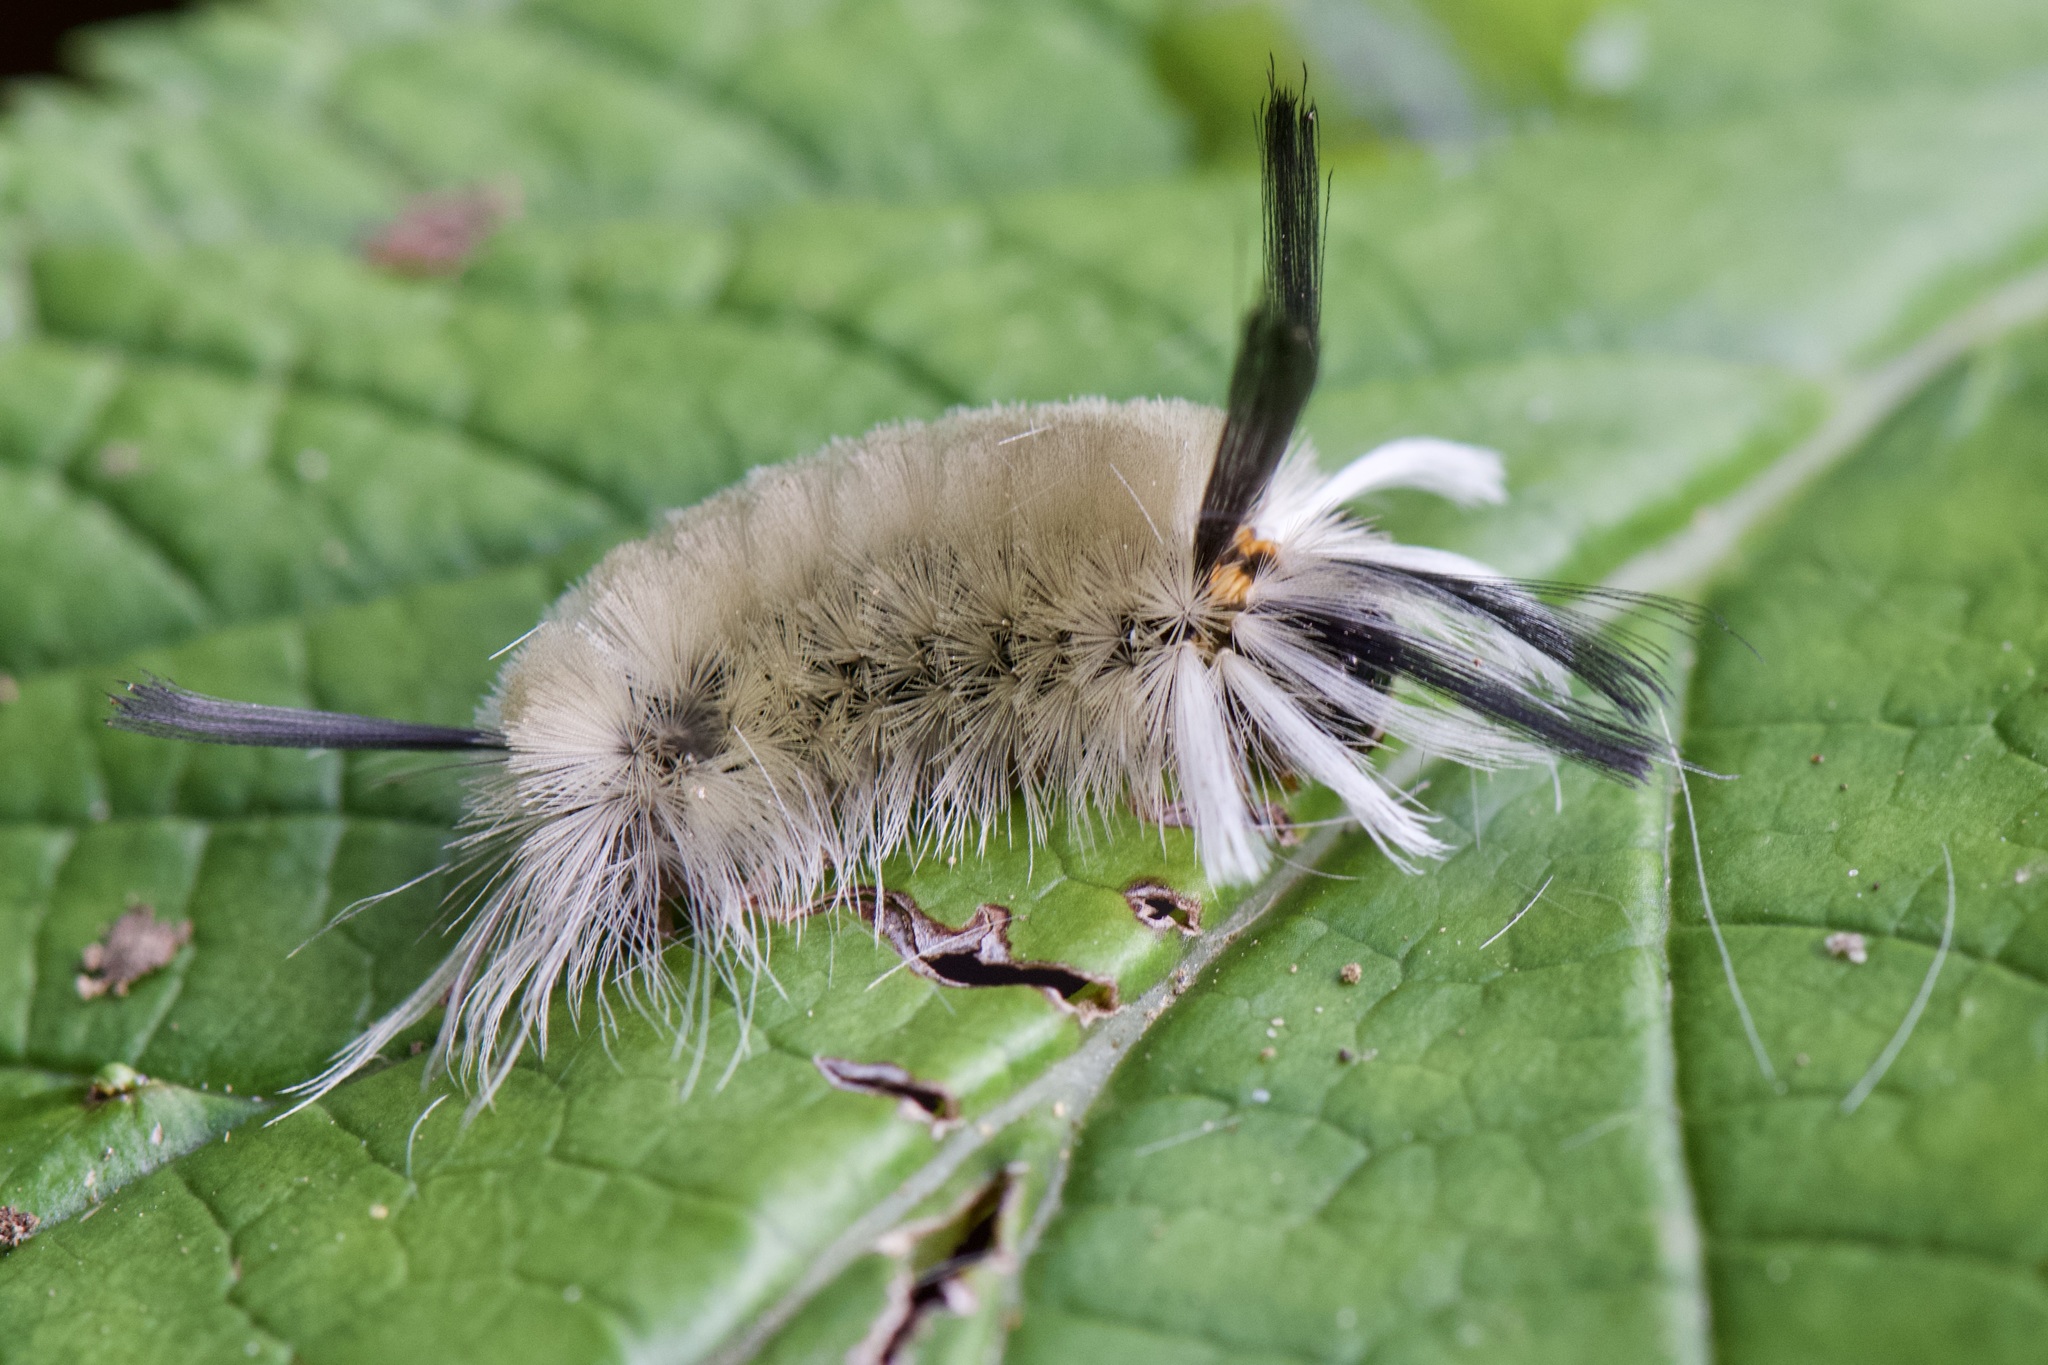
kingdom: Animalia
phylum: Arthropoda
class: Insecta
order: Lepidoptera
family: Erebidae
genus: Halysidota
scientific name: Halysidota tessellaris
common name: Banded tussock moth
